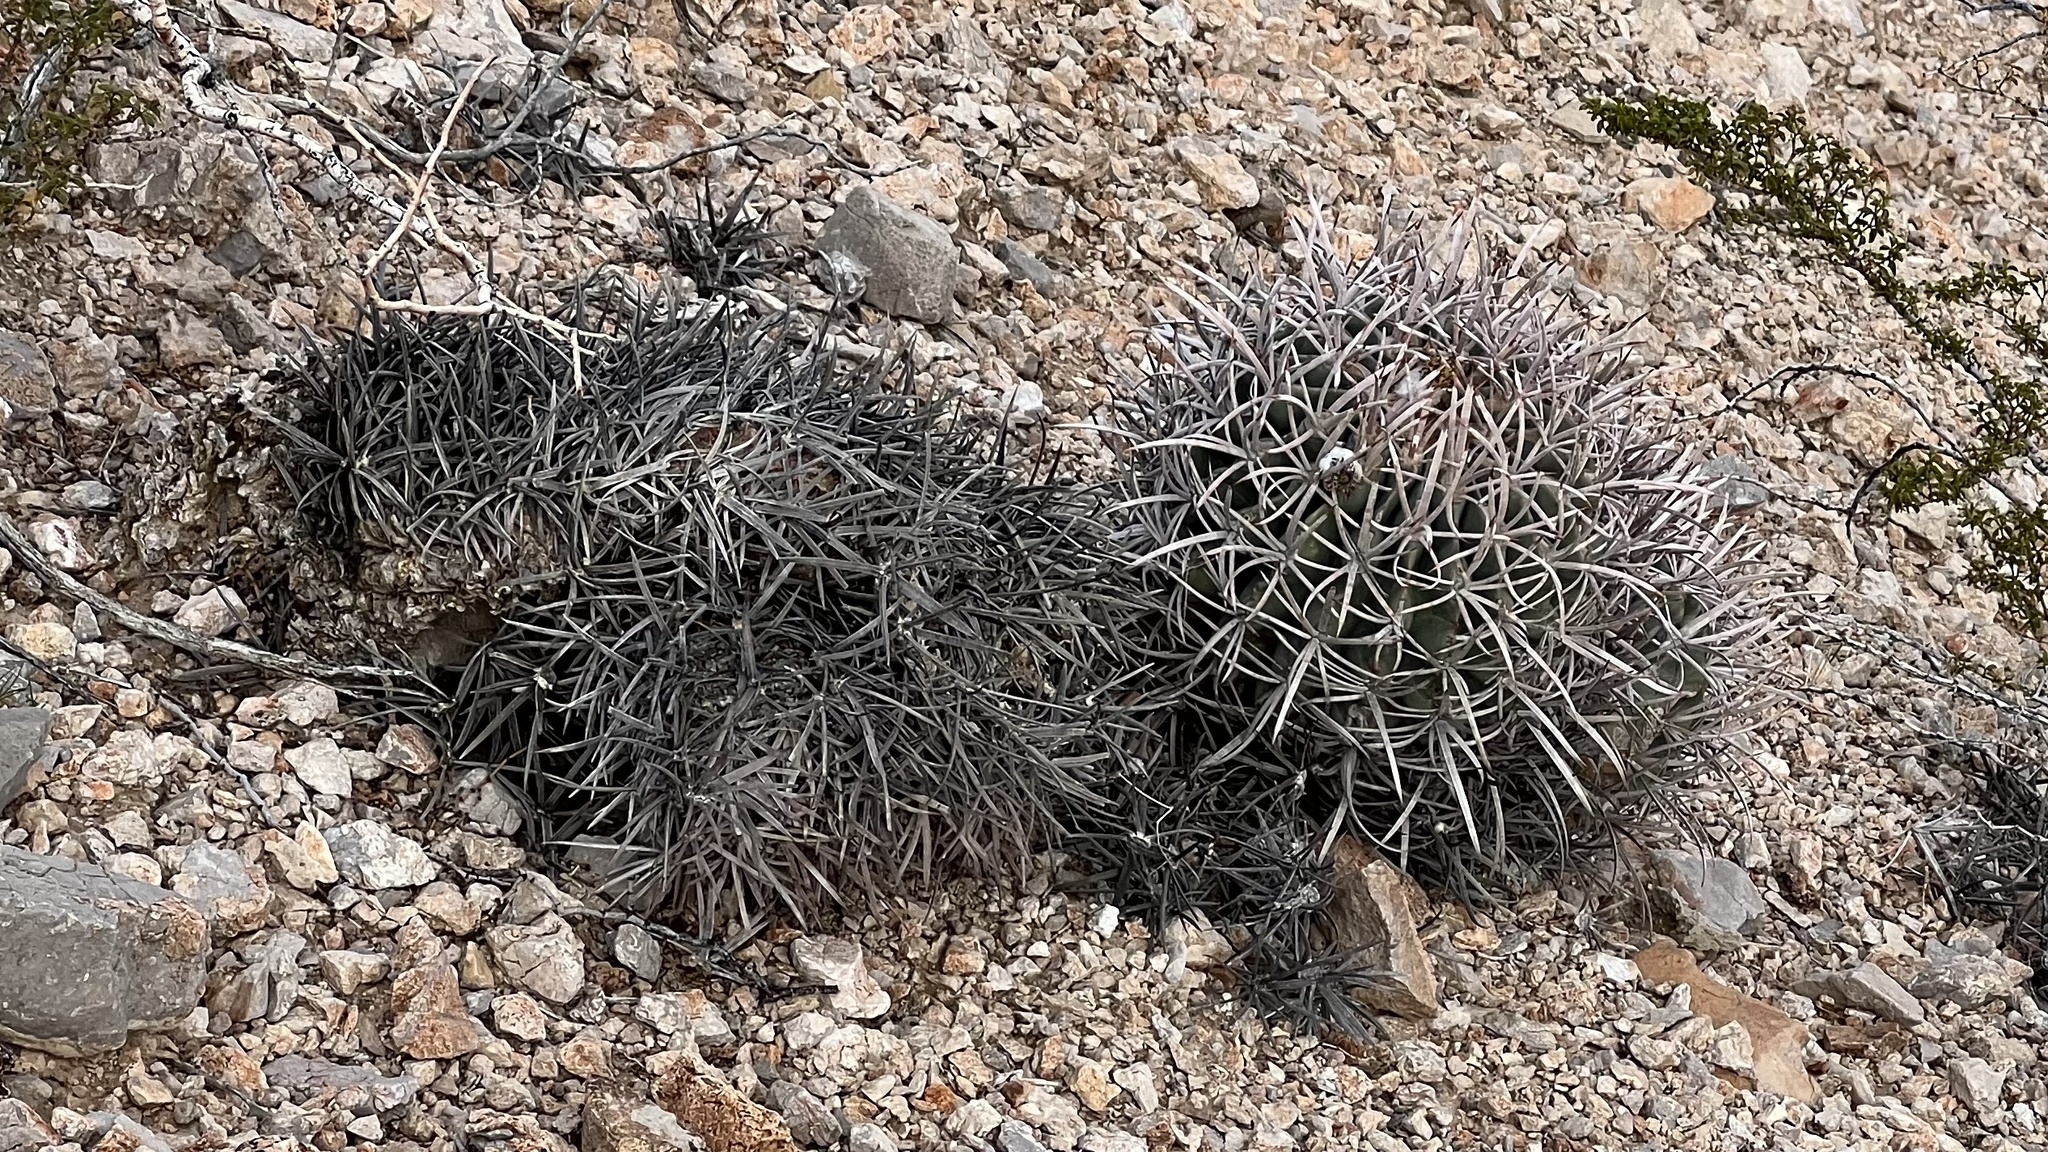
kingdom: Plantae
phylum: Tracheophyta
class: Magnoliopsida
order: Caryophyllales
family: Cactaceae
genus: Echinocactus
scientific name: Echinocactus polycephalus
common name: Cottontop cactus
